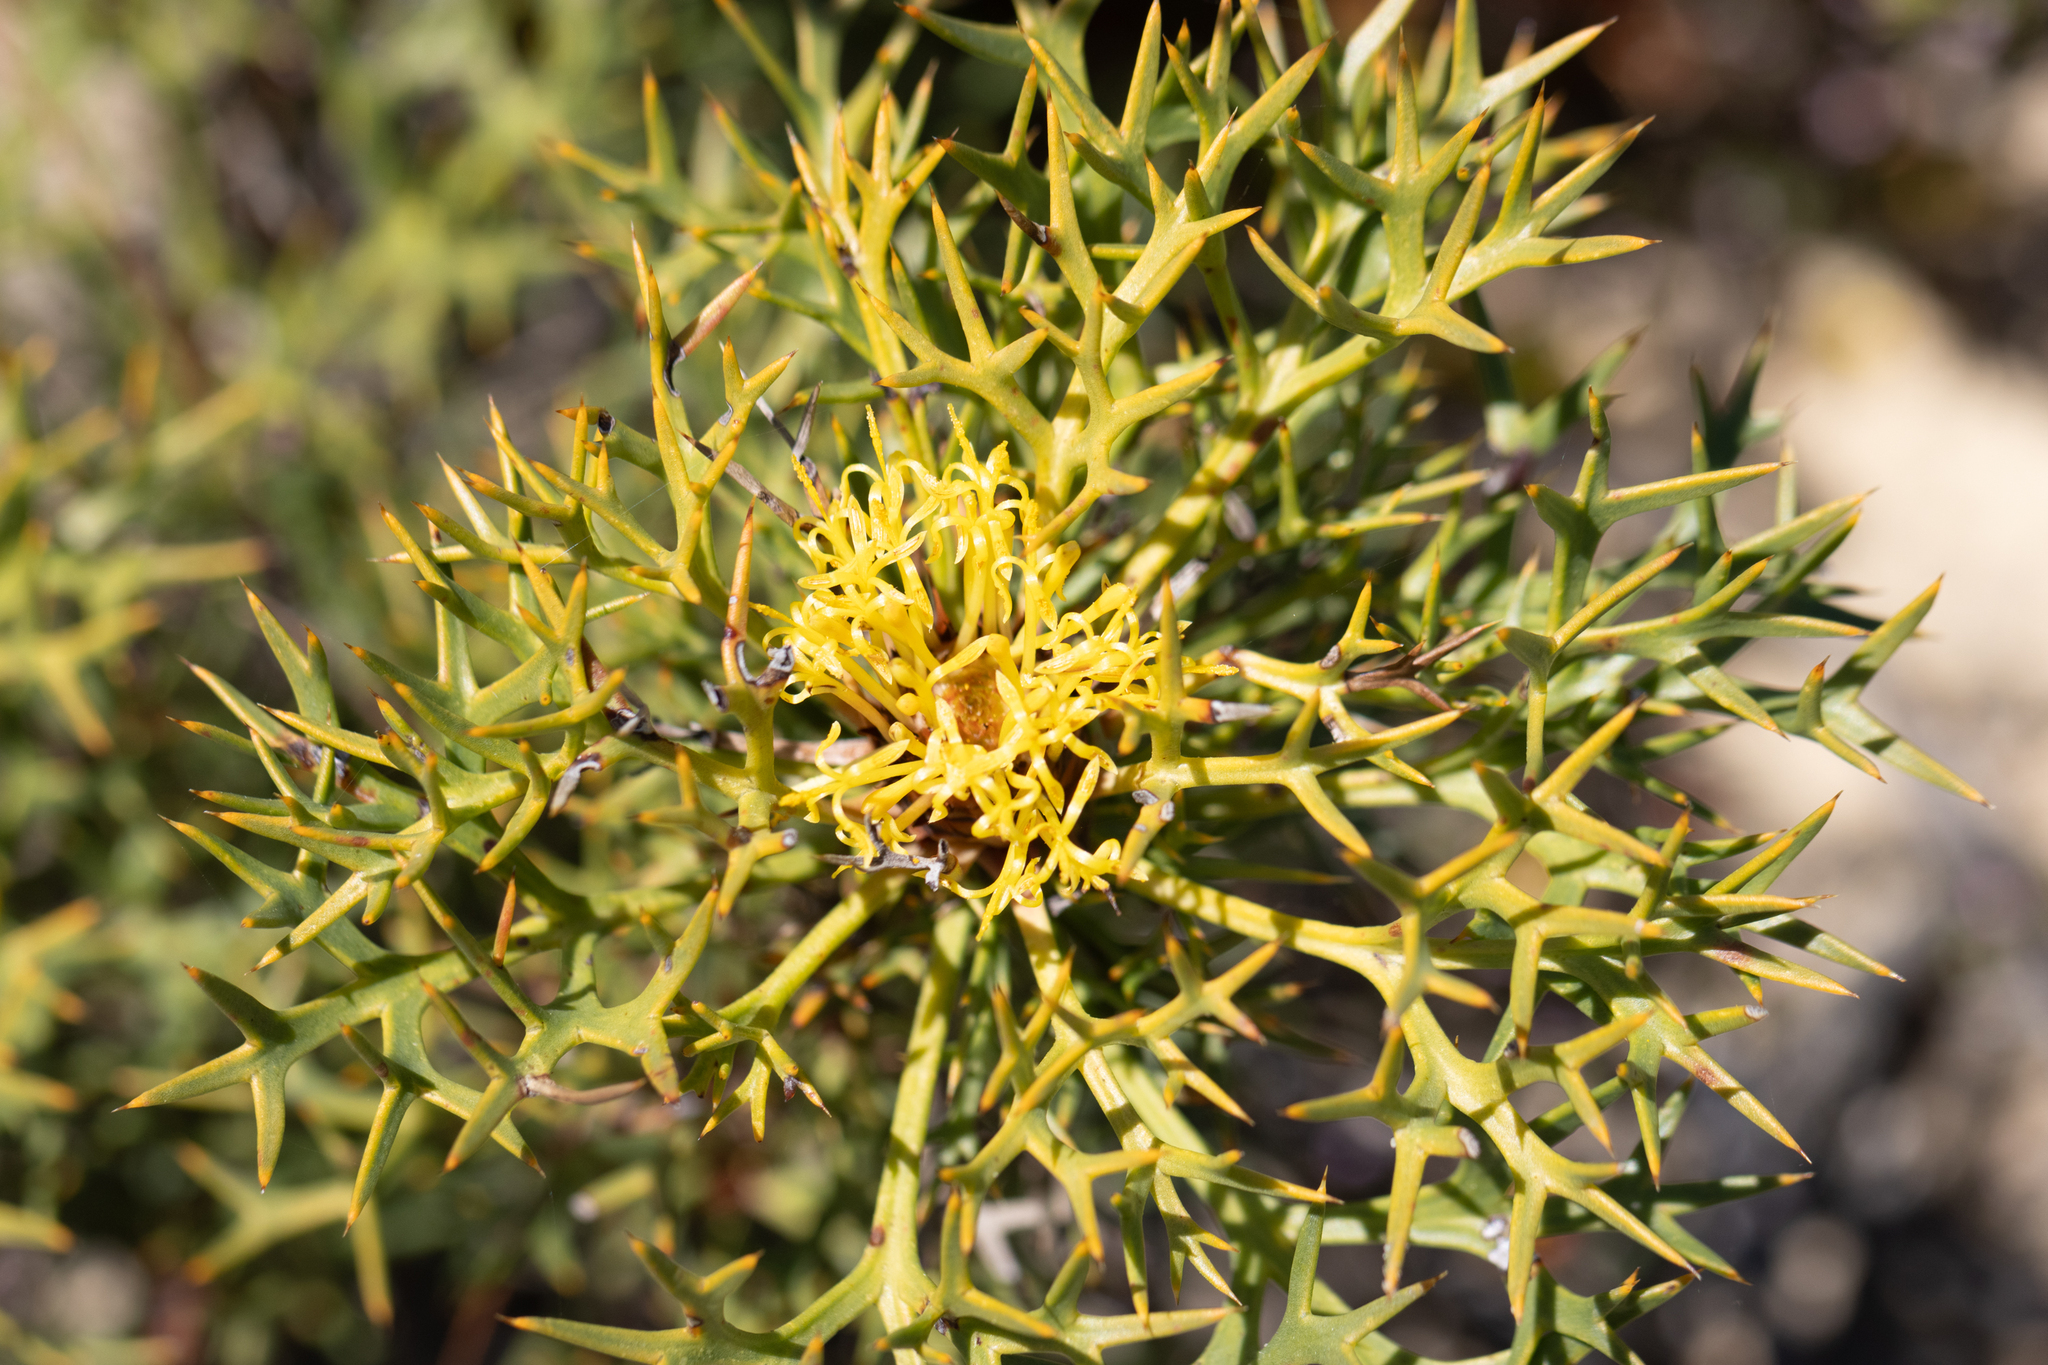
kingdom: Plantae
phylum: Tracheophyta
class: Magnoliopsida
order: Proteales
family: Proteaceae
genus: Isopogon
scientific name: Isopogon ceratophyllus
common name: Horny cone-bush
